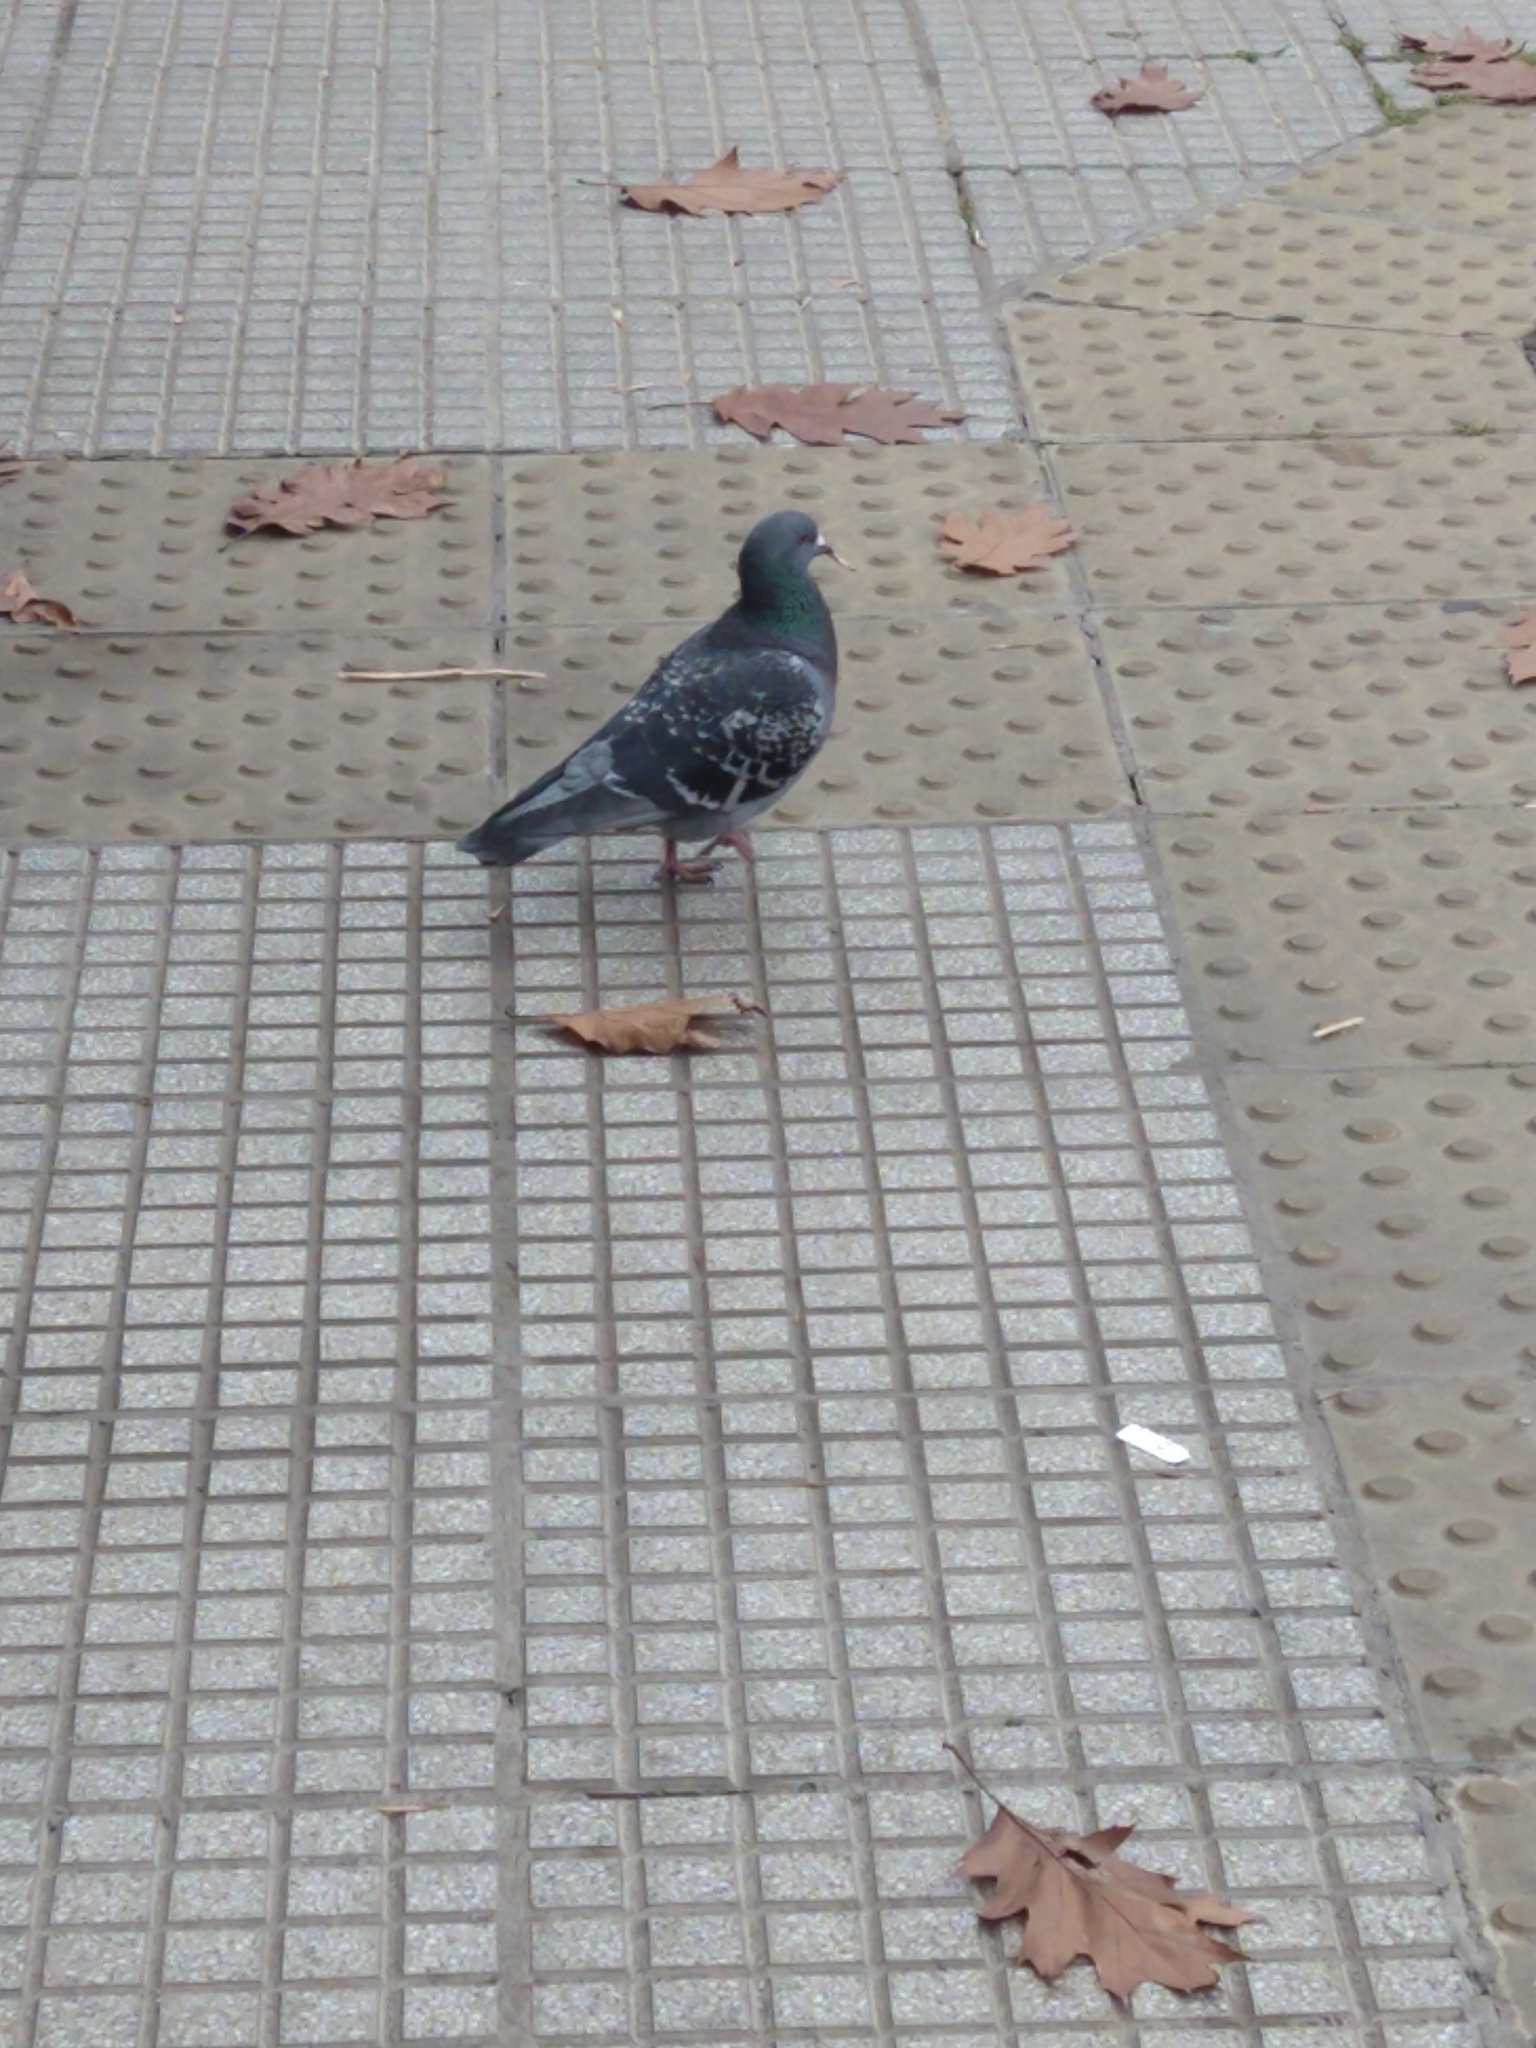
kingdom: Animalia
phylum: Chordata
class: Aves
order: Columbiformes
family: Columbidae
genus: Columba
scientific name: Columba livia
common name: Rock pigeon
